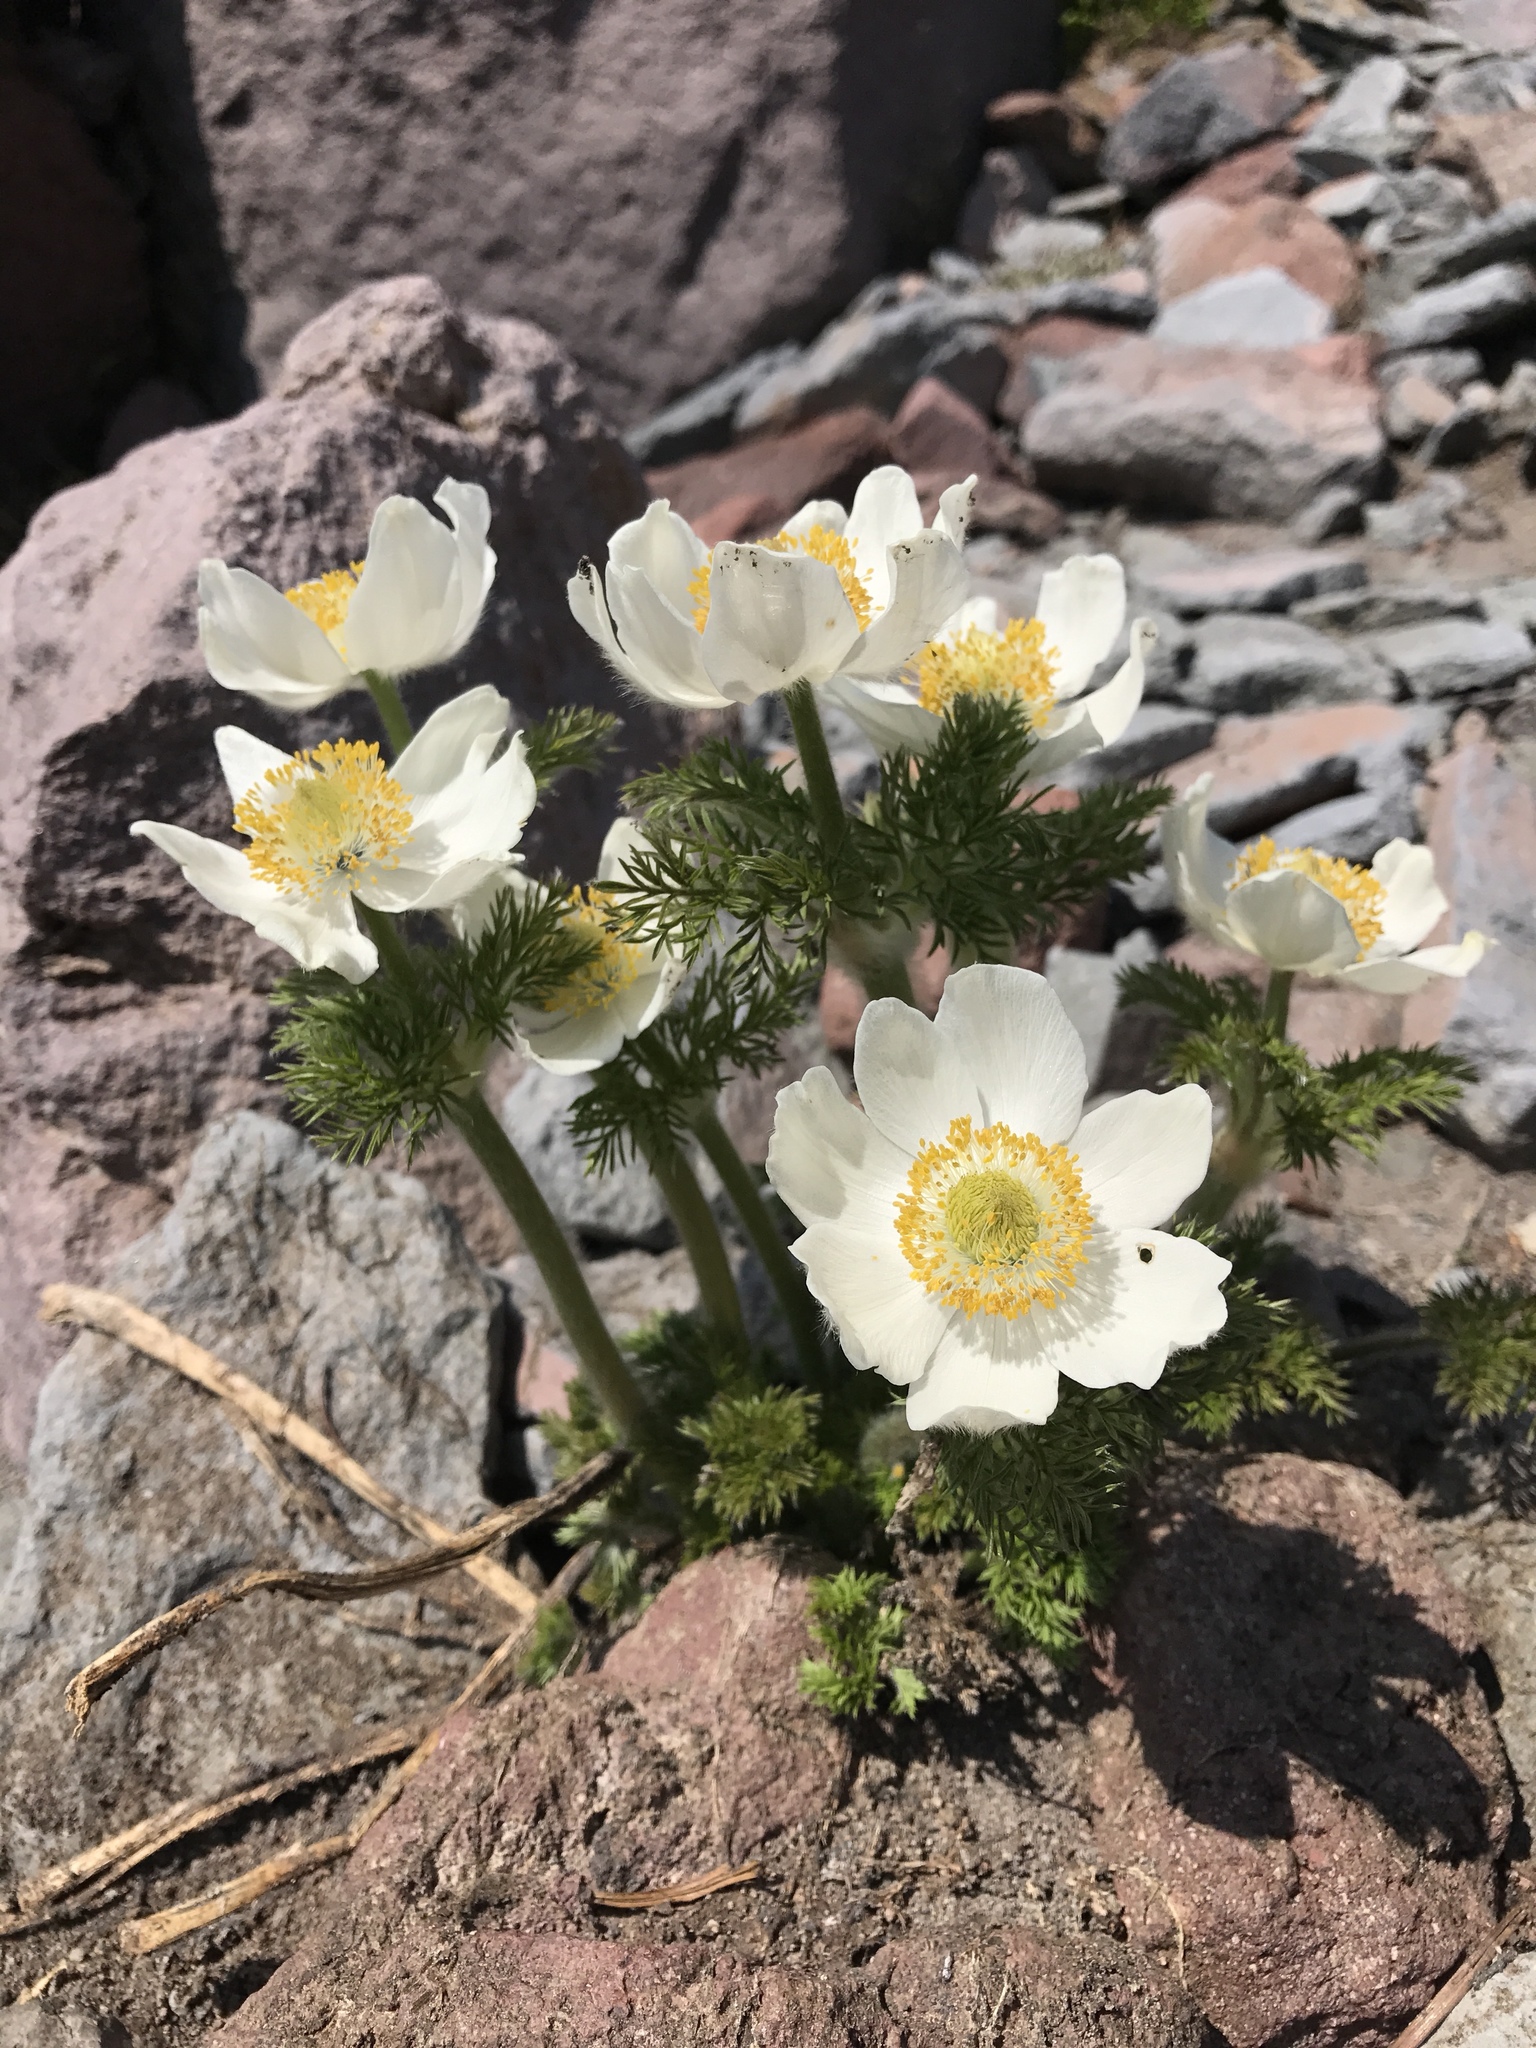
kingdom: Plantae
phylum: Tracheophyta
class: Magnoliopsida
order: Ranunculales
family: Ranunculaceae
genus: Pulsatilla
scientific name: Pulsatilla occidentalis
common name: Mountain pasqueflower
